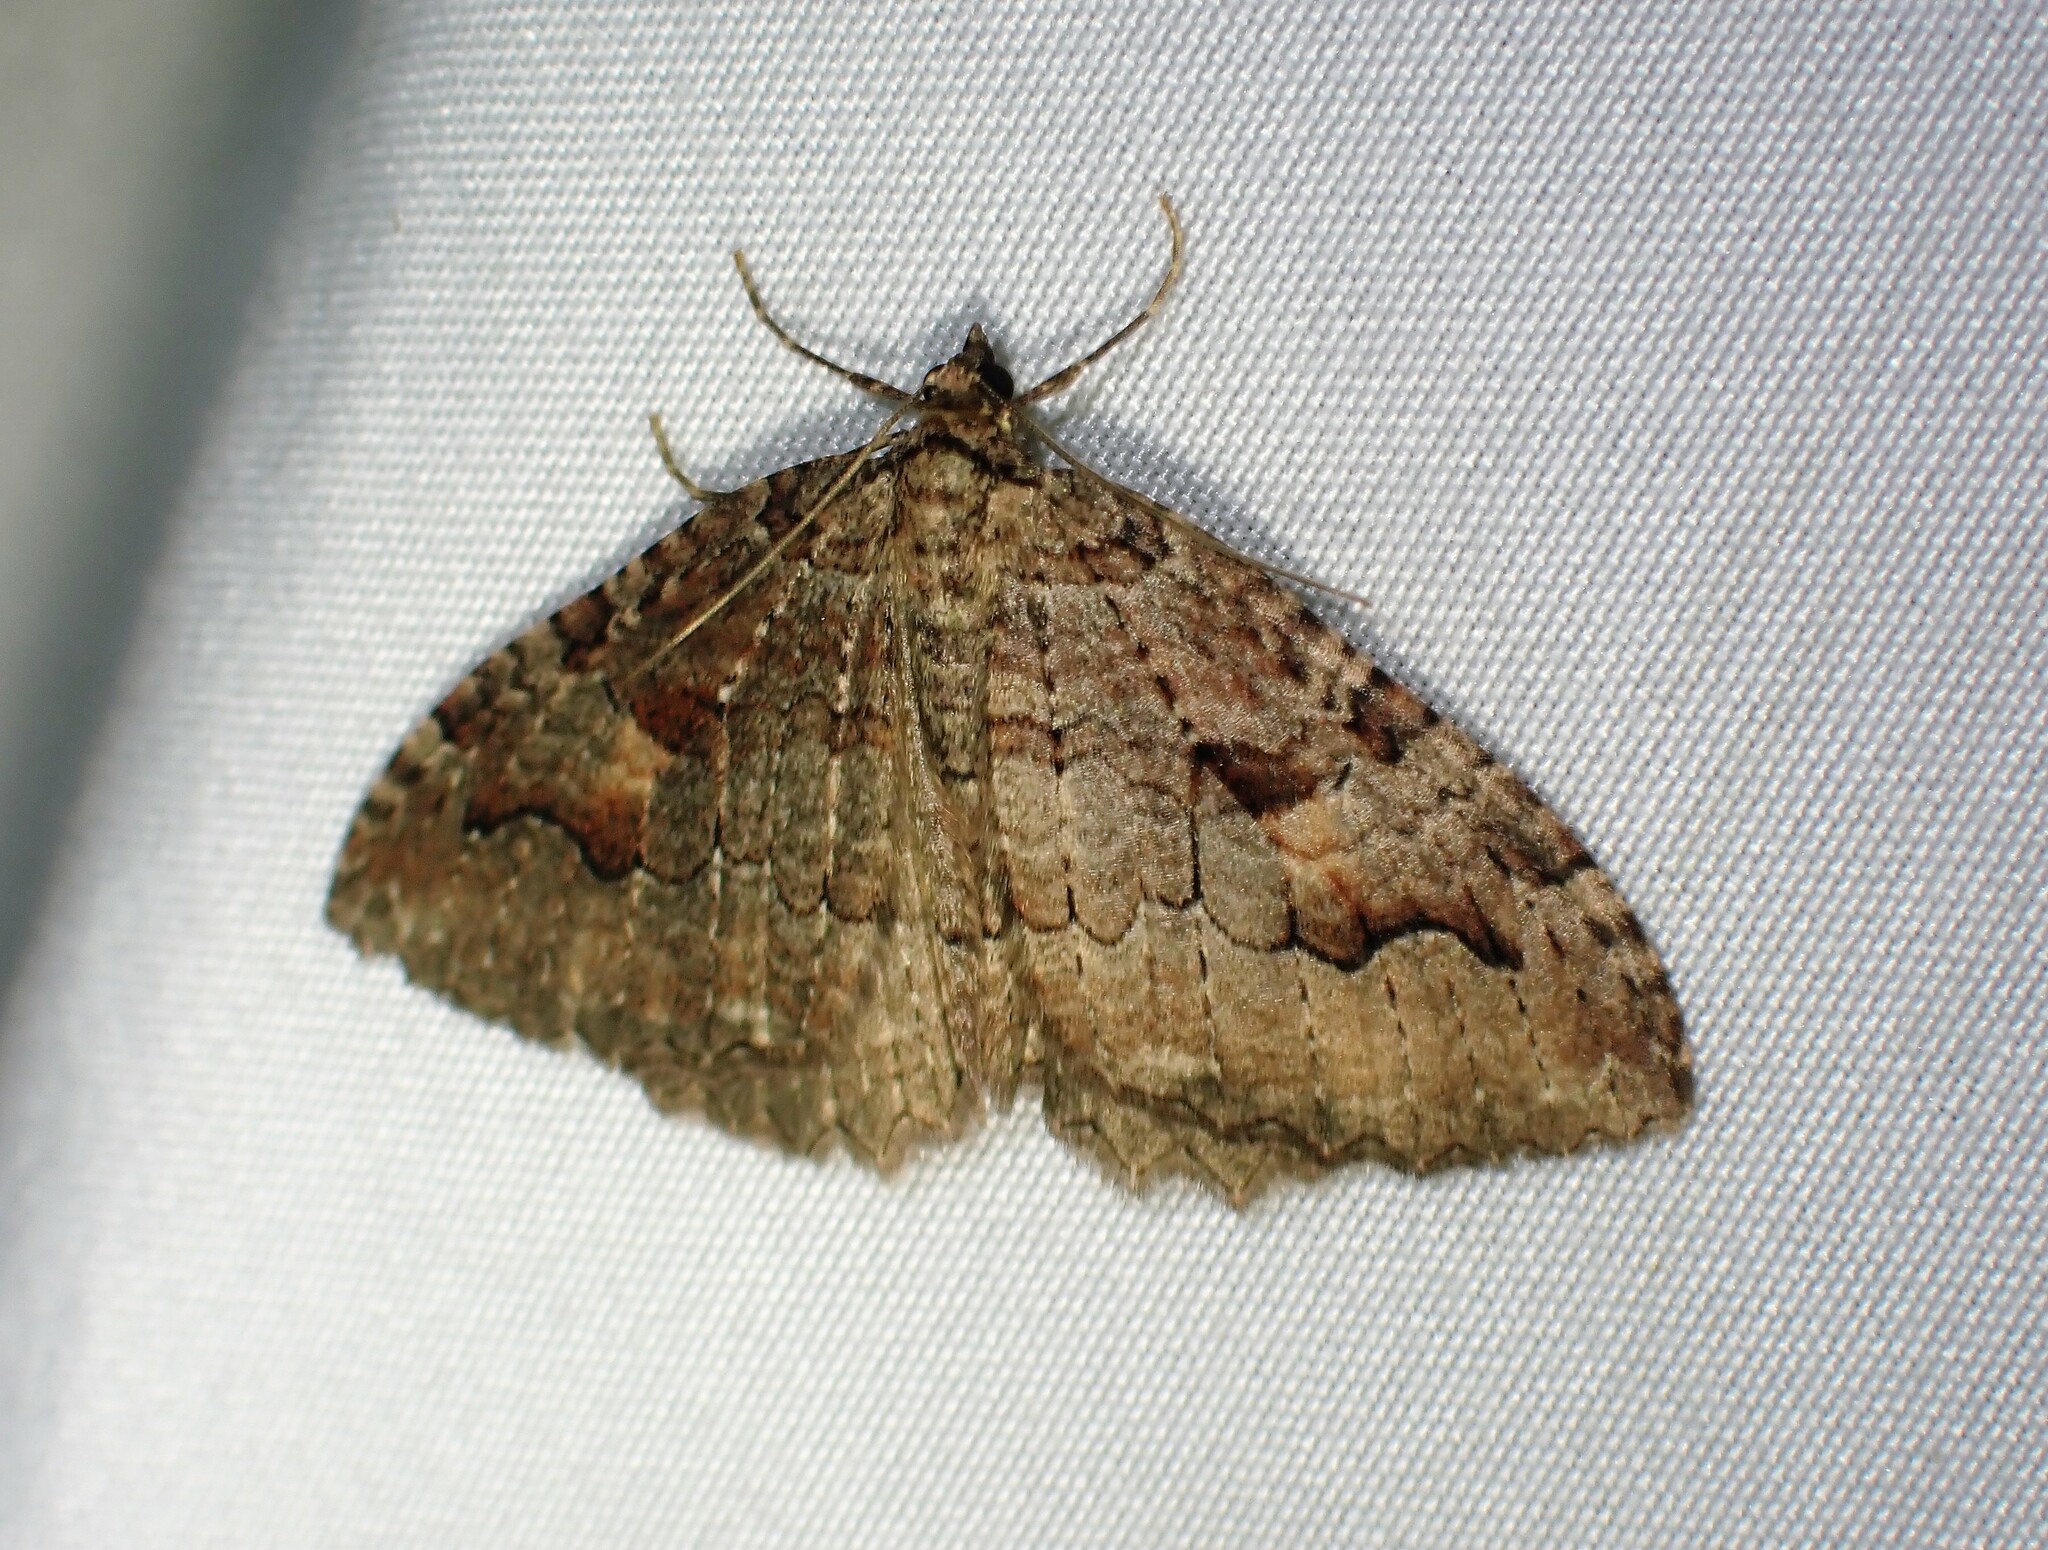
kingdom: Animalia
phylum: Arthropoda
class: Insecta
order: Lepidoptera
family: Geometridae
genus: Triphosa
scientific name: Triphosa haesitata
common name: Tissue moth
